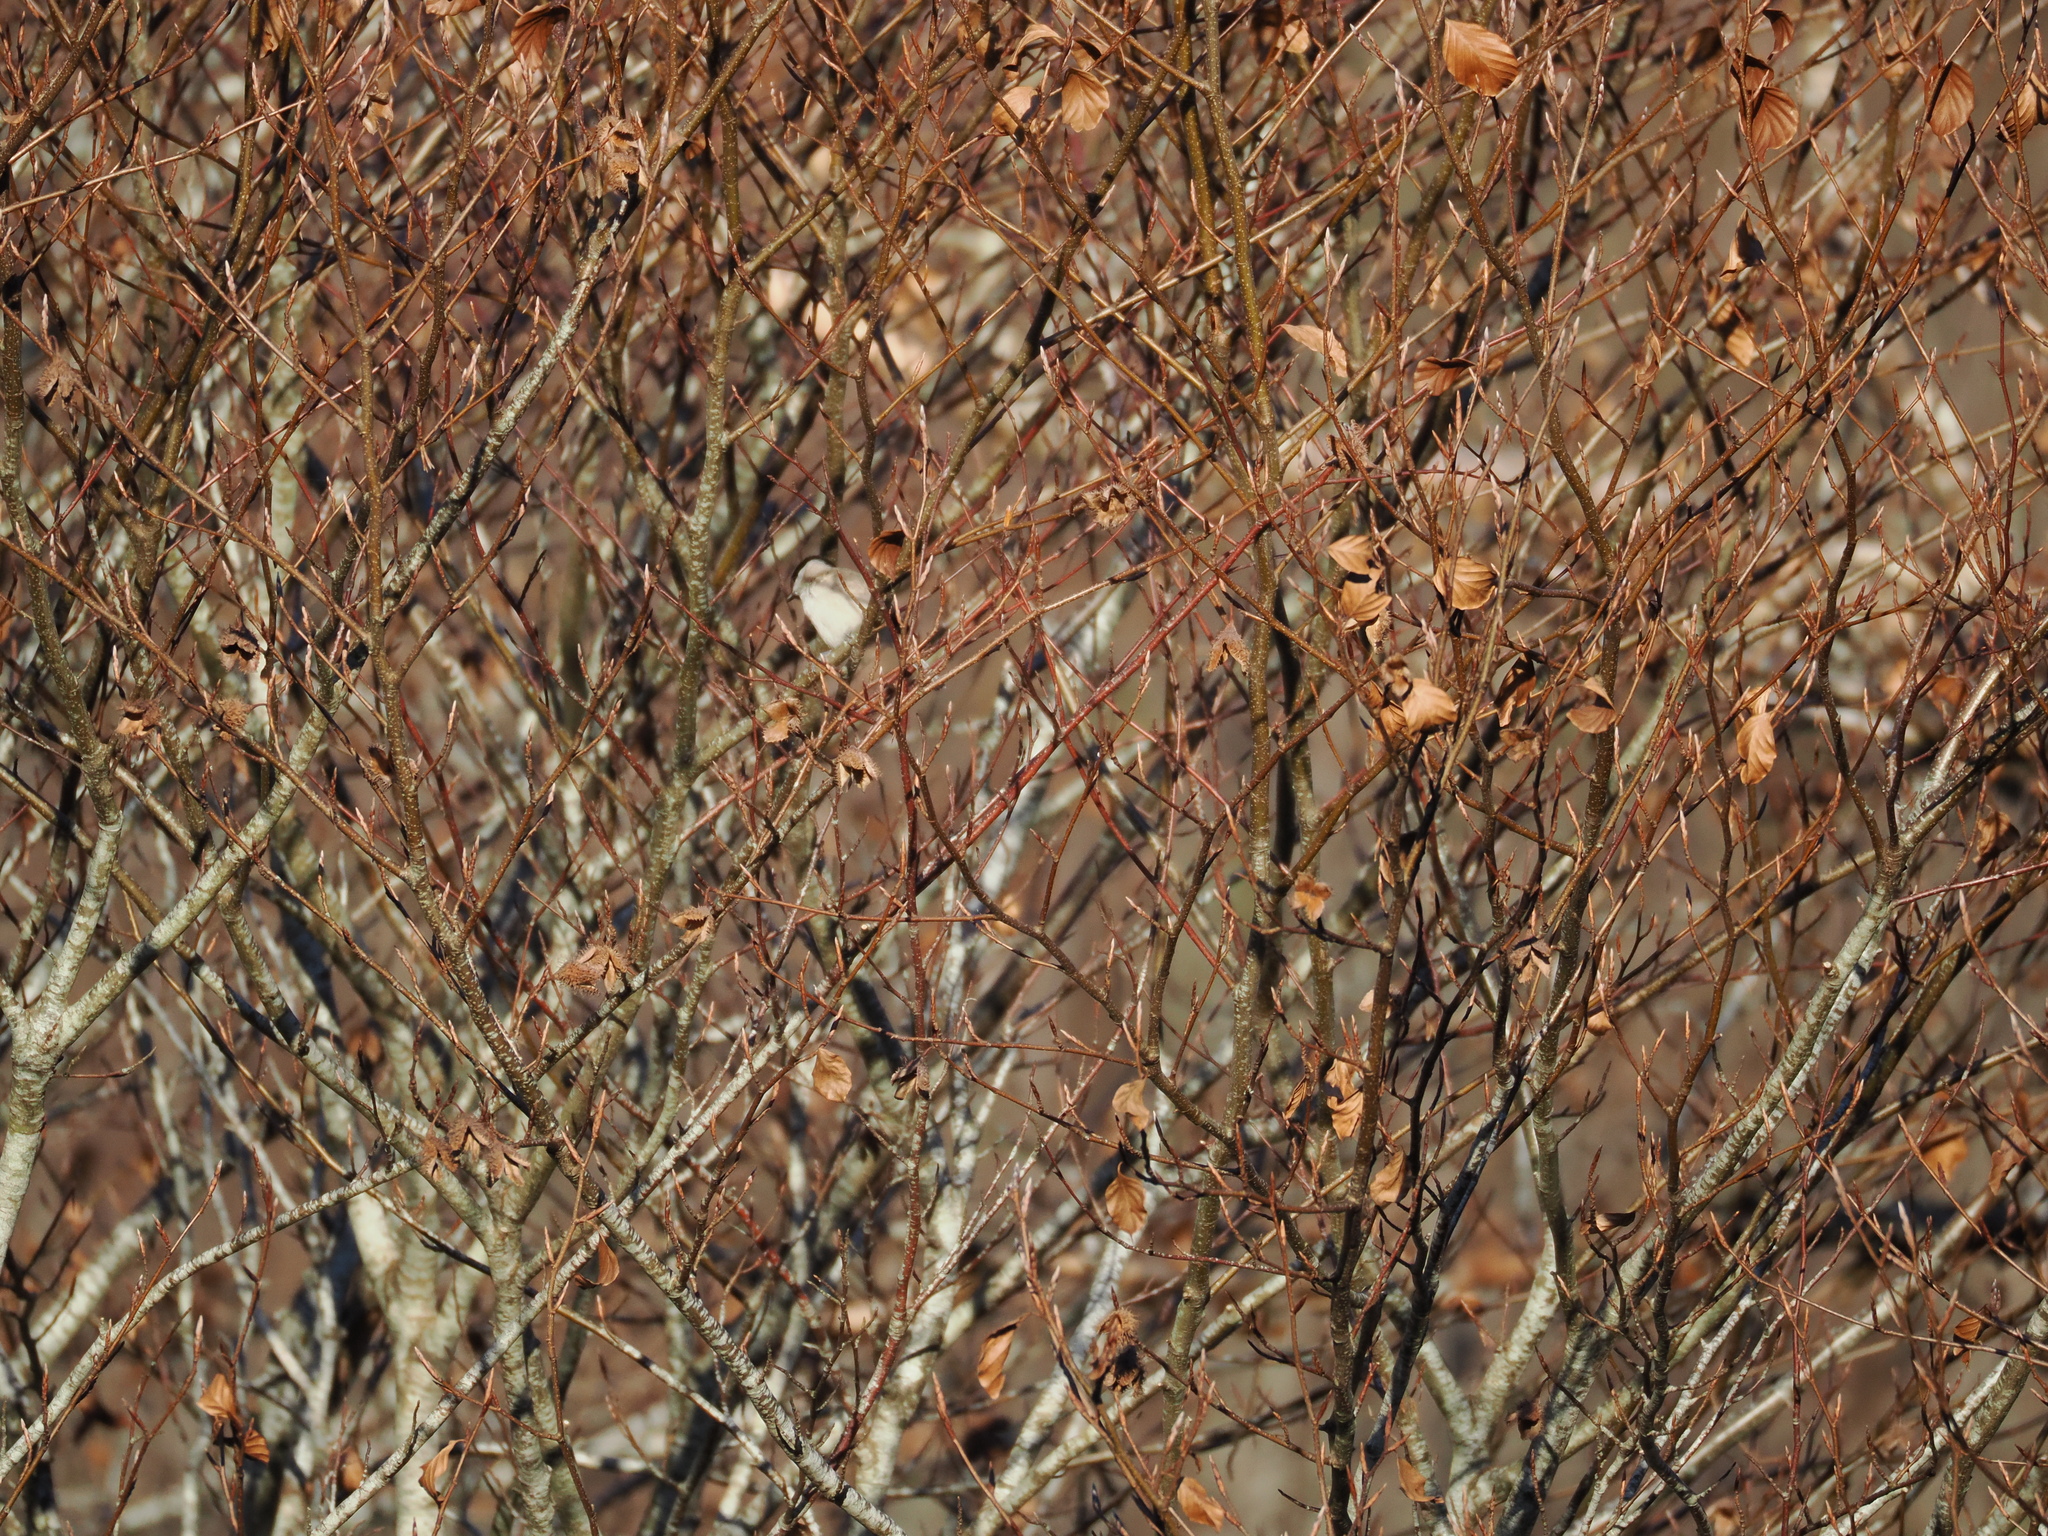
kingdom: Animalia
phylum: Chordata
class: Aves
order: Passeriformes
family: Paridae
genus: Poecile
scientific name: Poecile palustris
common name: Marsh tit
